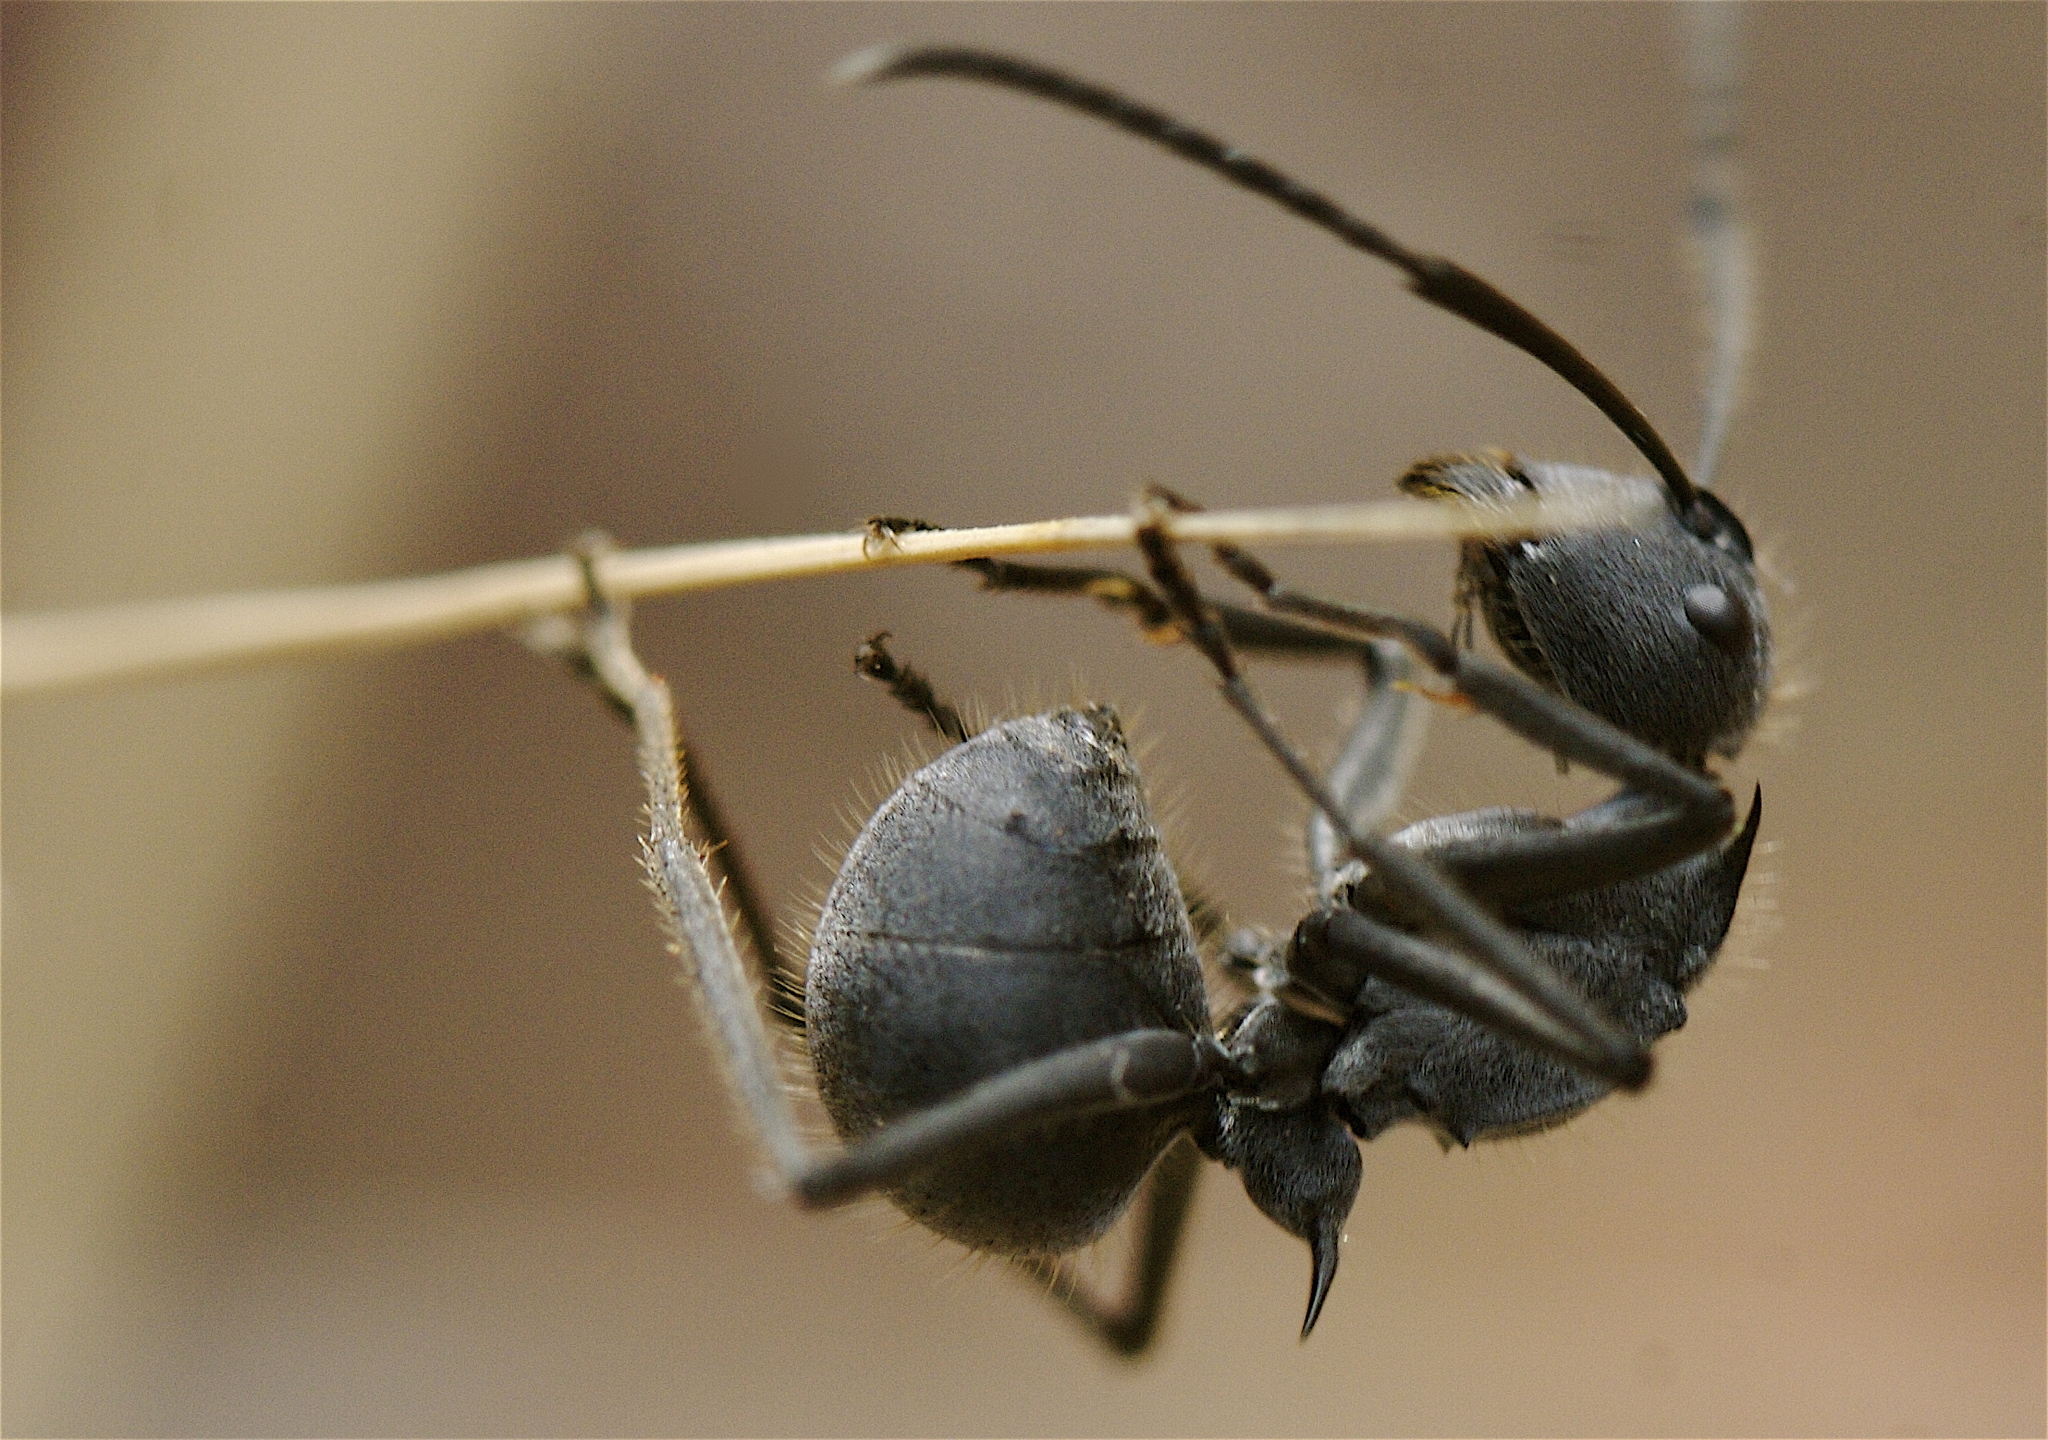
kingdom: Animalia
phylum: Arthropoda
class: Insecta
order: Hymenoptera
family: Formicidae
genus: Polyrhachis
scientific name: Polyrhachis schistacea
